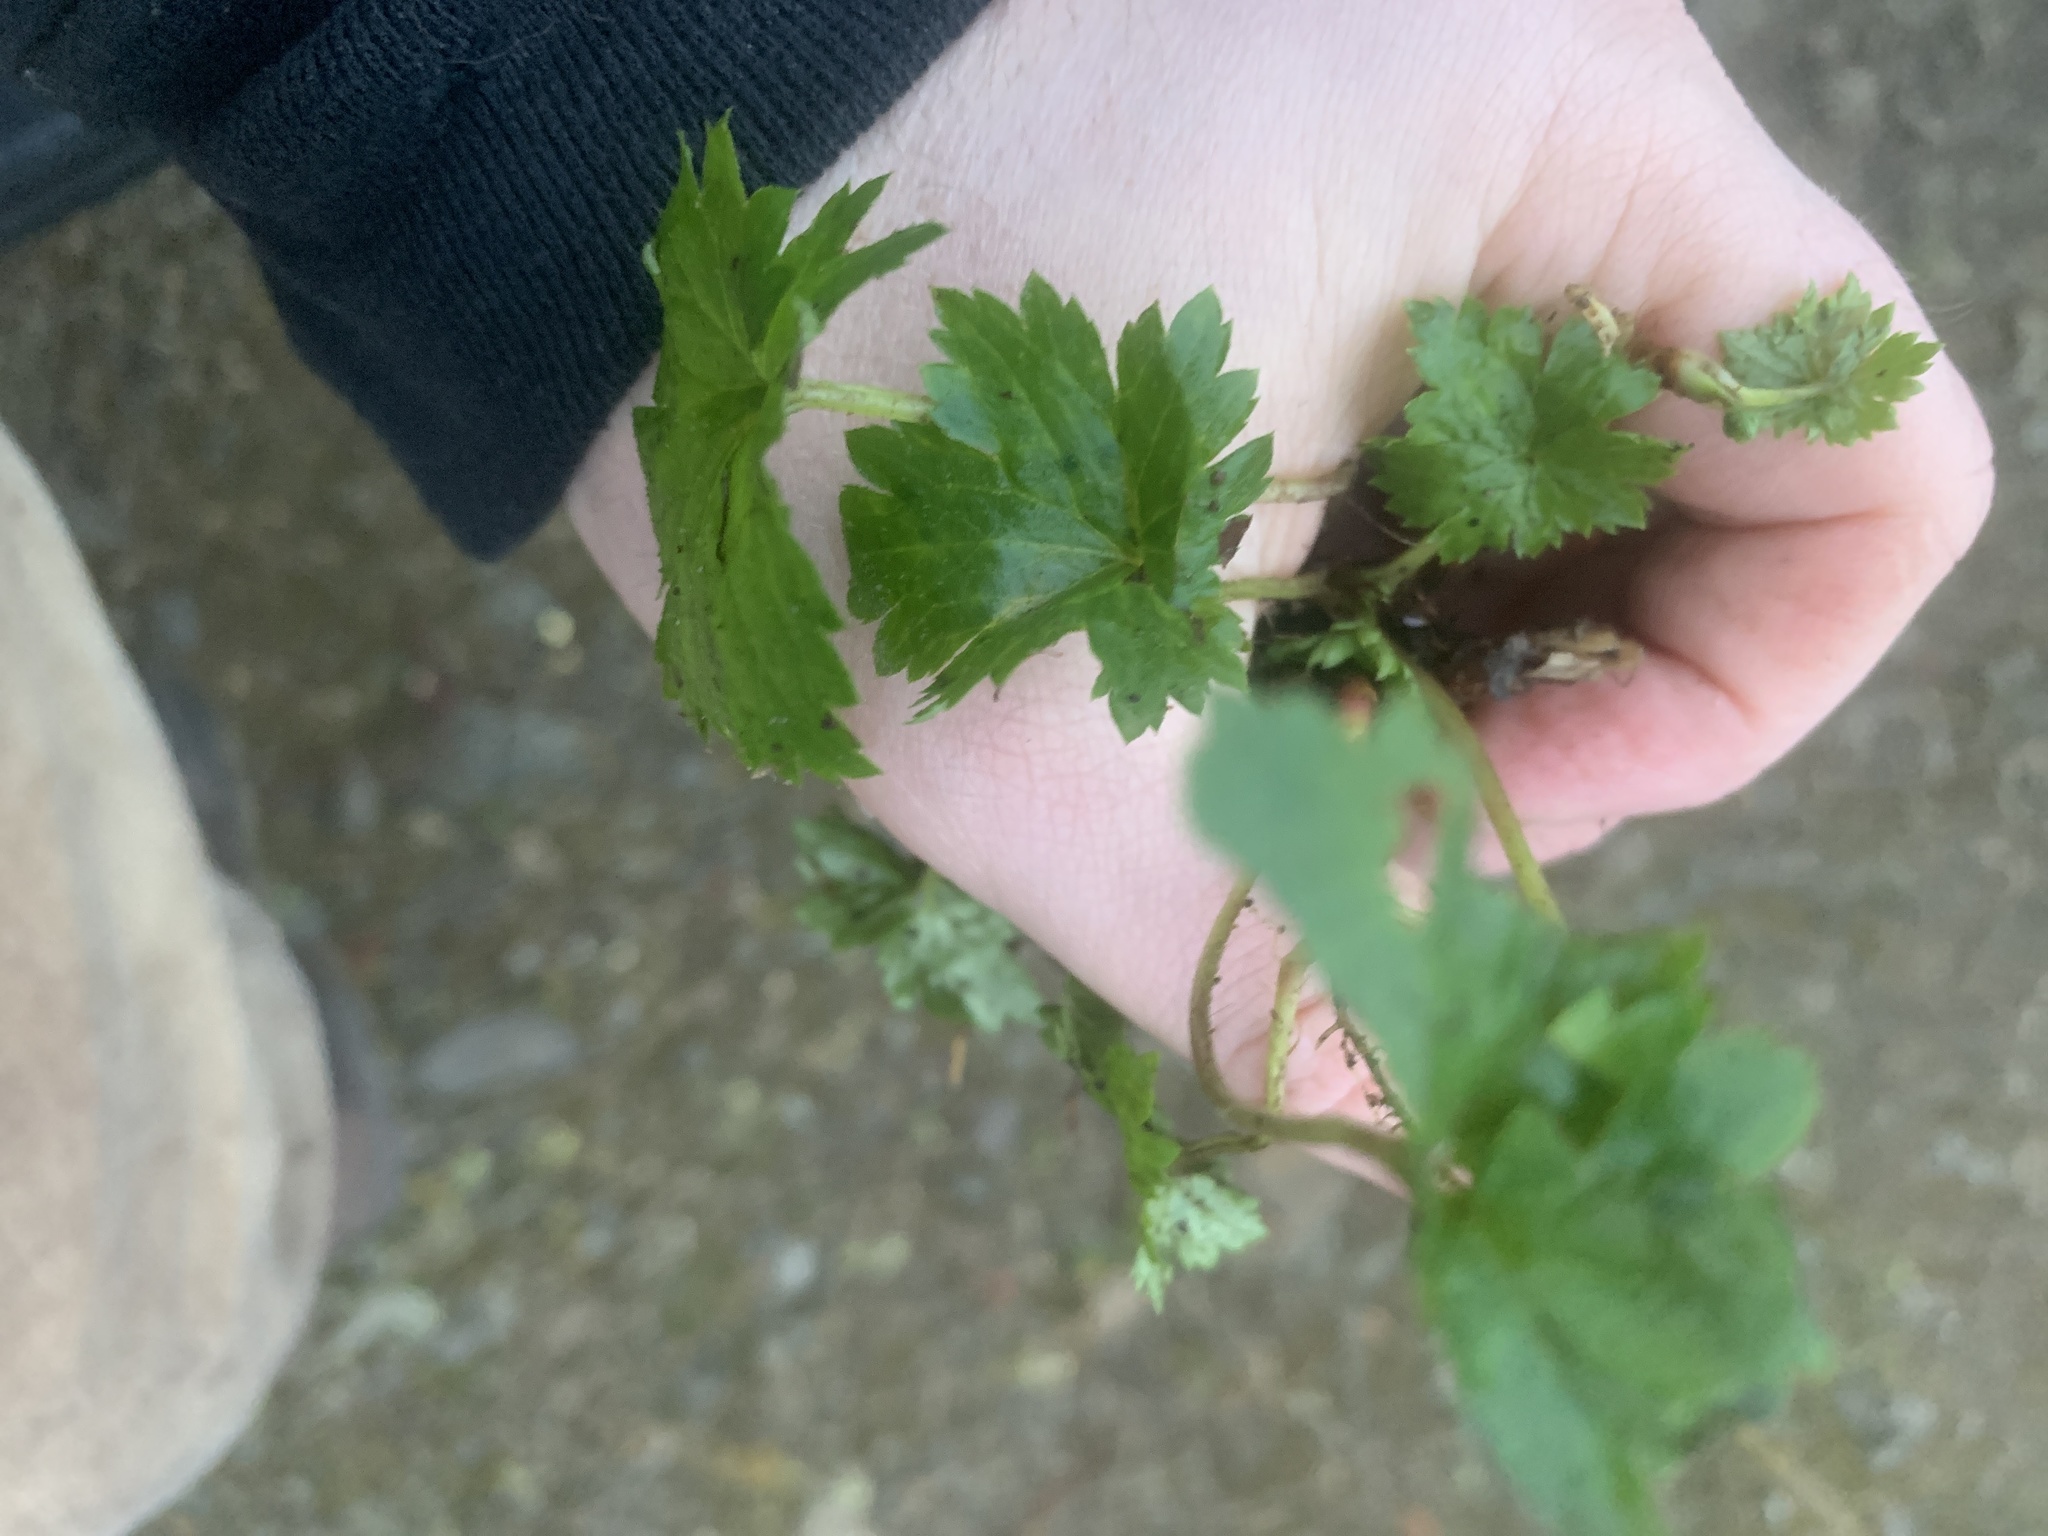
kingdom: Plantae
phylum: Tracheophyta
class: Magnoliopsida
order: Saxifragales
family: Saxifragaceae
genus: Boykinia
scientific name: Boykinia occidentalis
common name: Coast boykinia
